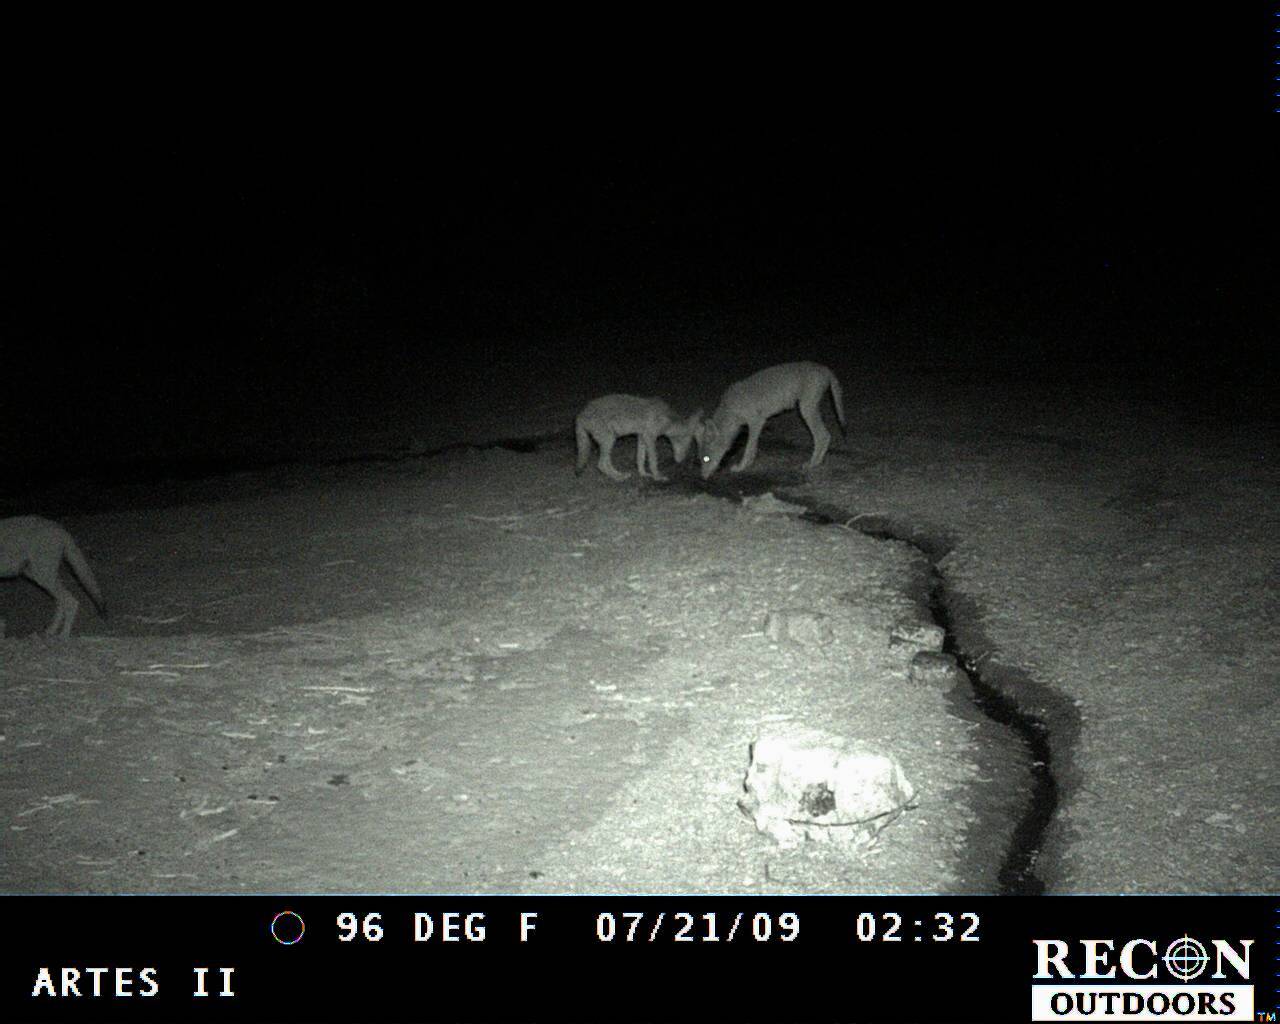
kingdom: Animalia
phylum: Chordata
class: Mammalia
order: Carnivora
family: Canidae
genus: Canis
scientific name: Canis latrans
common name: Coyote
